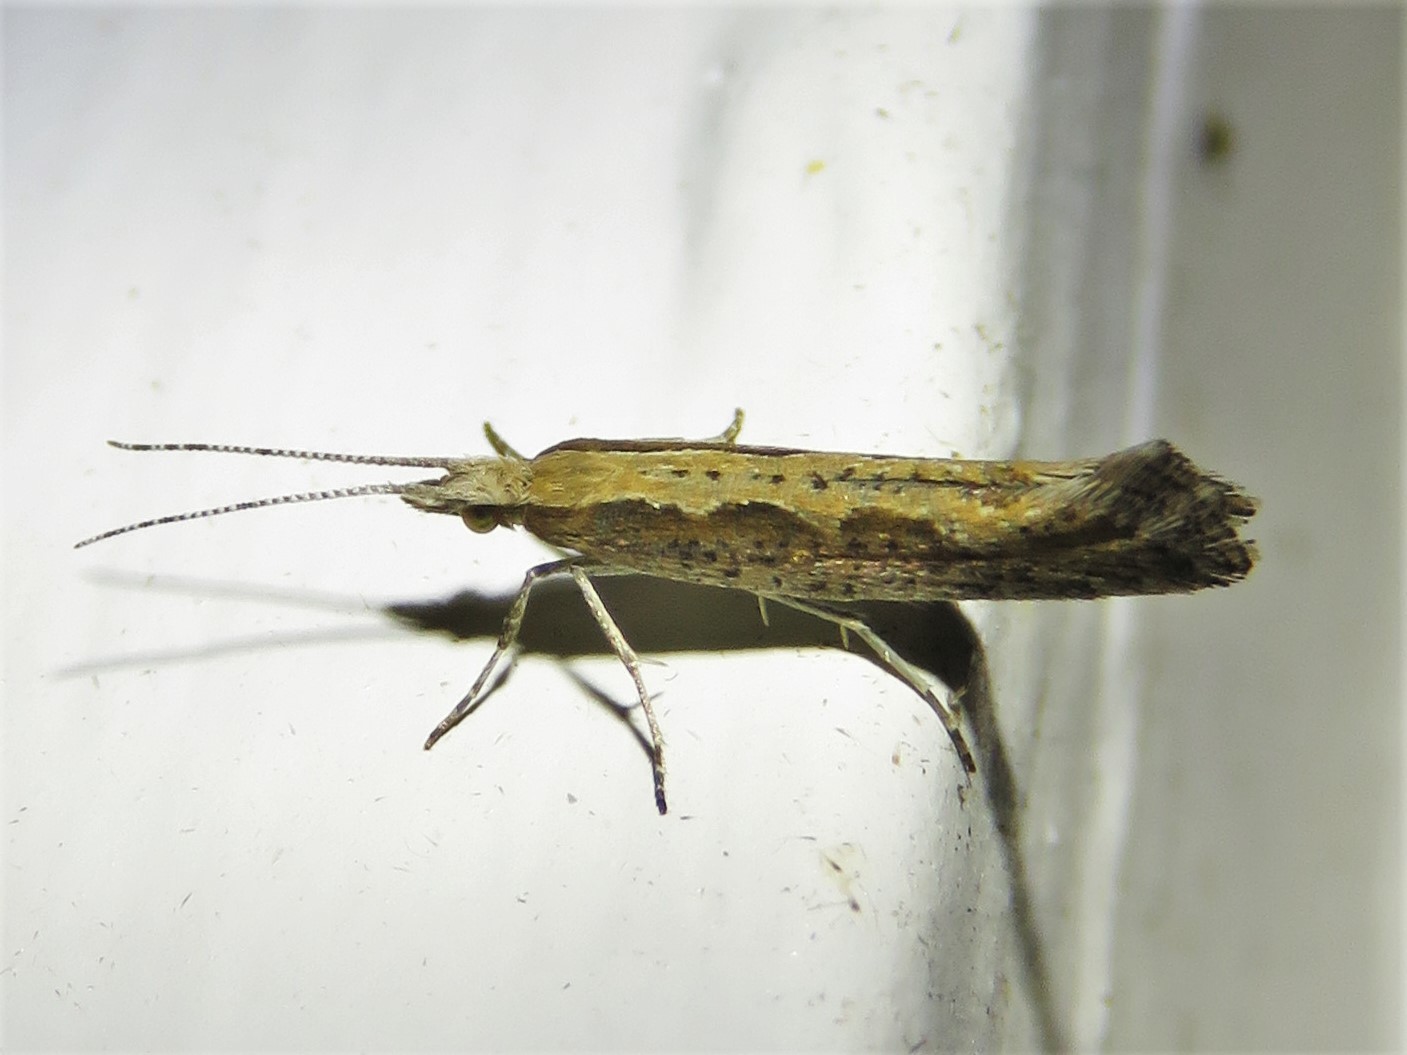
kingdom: Animalia
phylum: Arthropoda
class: Insecta
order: Lepidoptera
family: Plutellidae
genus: Plutella
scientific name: Plutella xylostella
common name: Diamond-back moth
